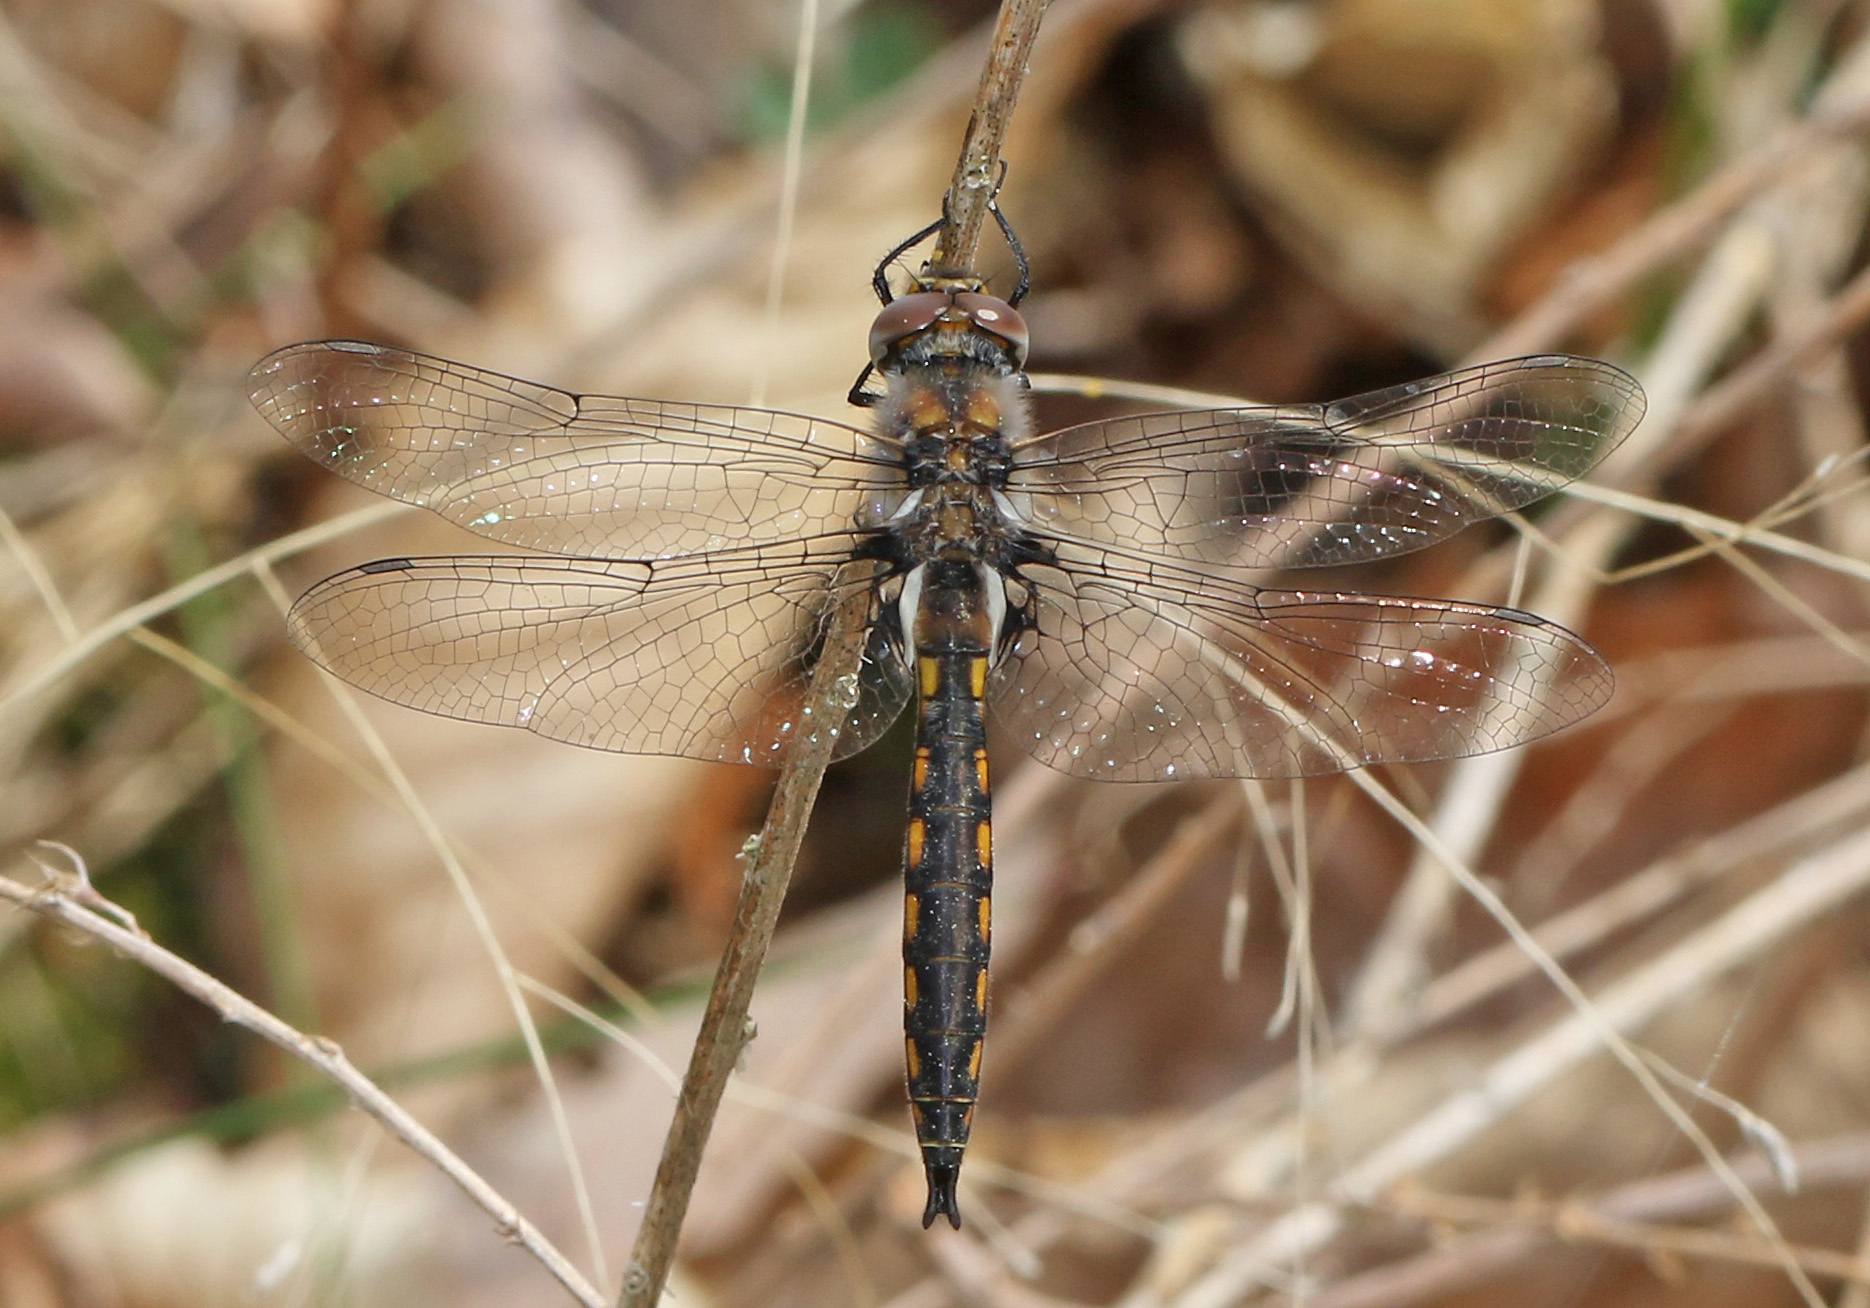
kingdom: Animalia
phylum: Arthropoda
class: Insecta
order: Odonata
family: Corduliidae
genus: Epitheca
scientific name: Epitheca cynosura
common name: Common baskettail
